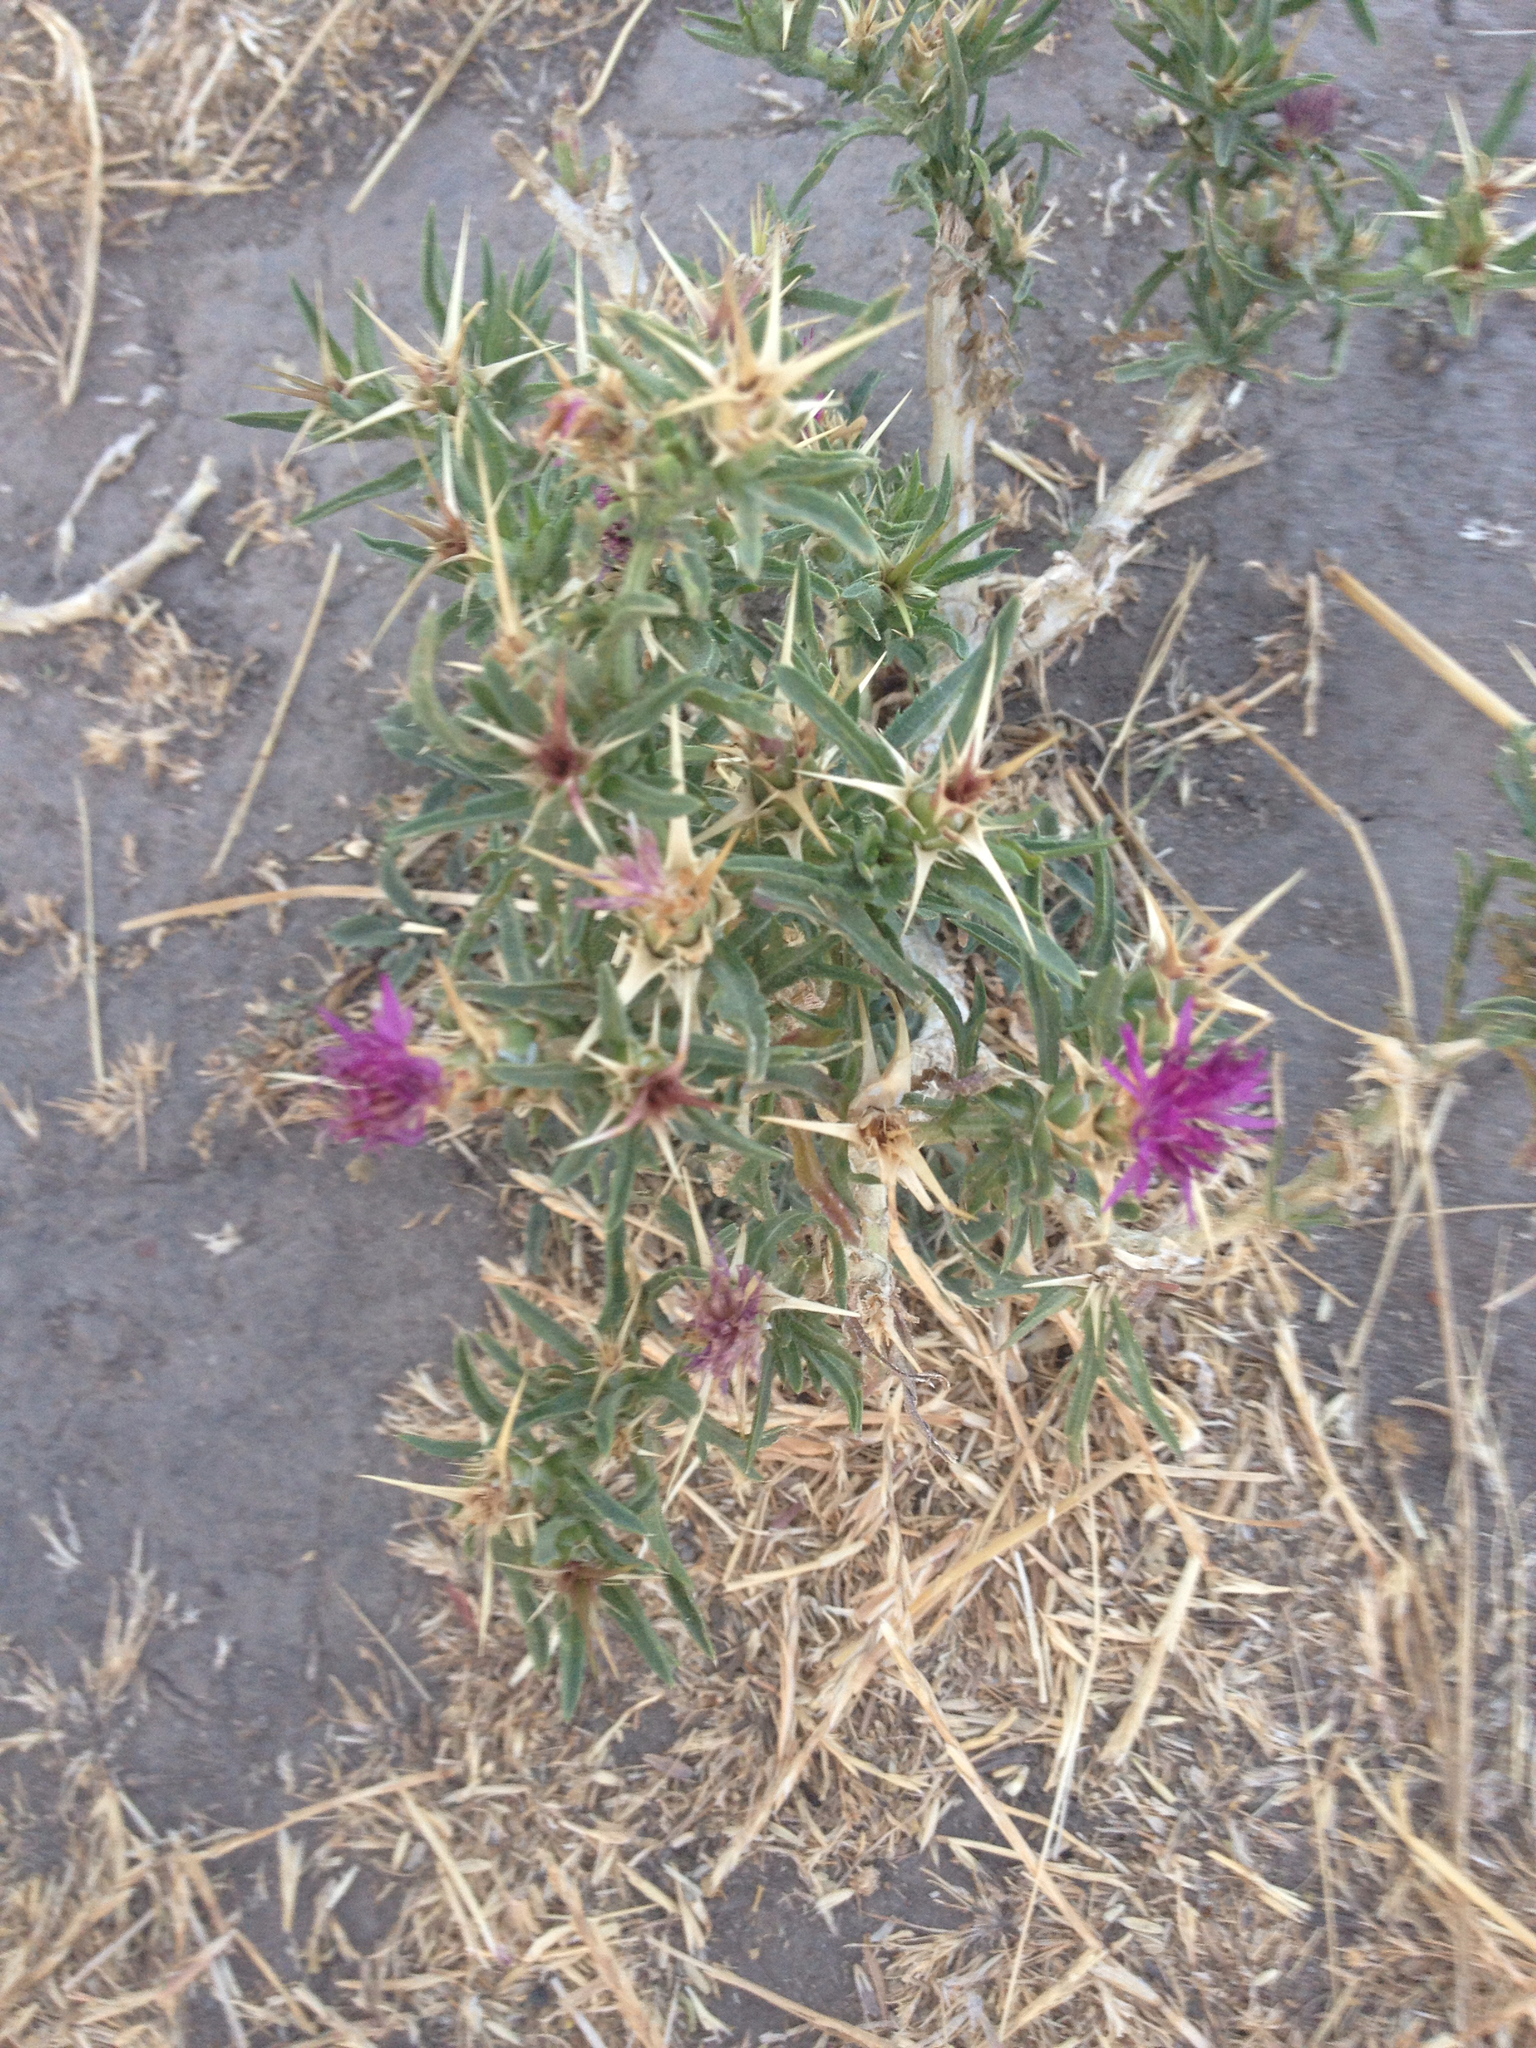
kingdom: Plantae
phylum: Tracheophyta
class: Magnoliopsida
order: Asterales
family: Asteraceae
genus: Centaurea
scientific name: Centaurea calcitrapa
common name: Red star-thistle
